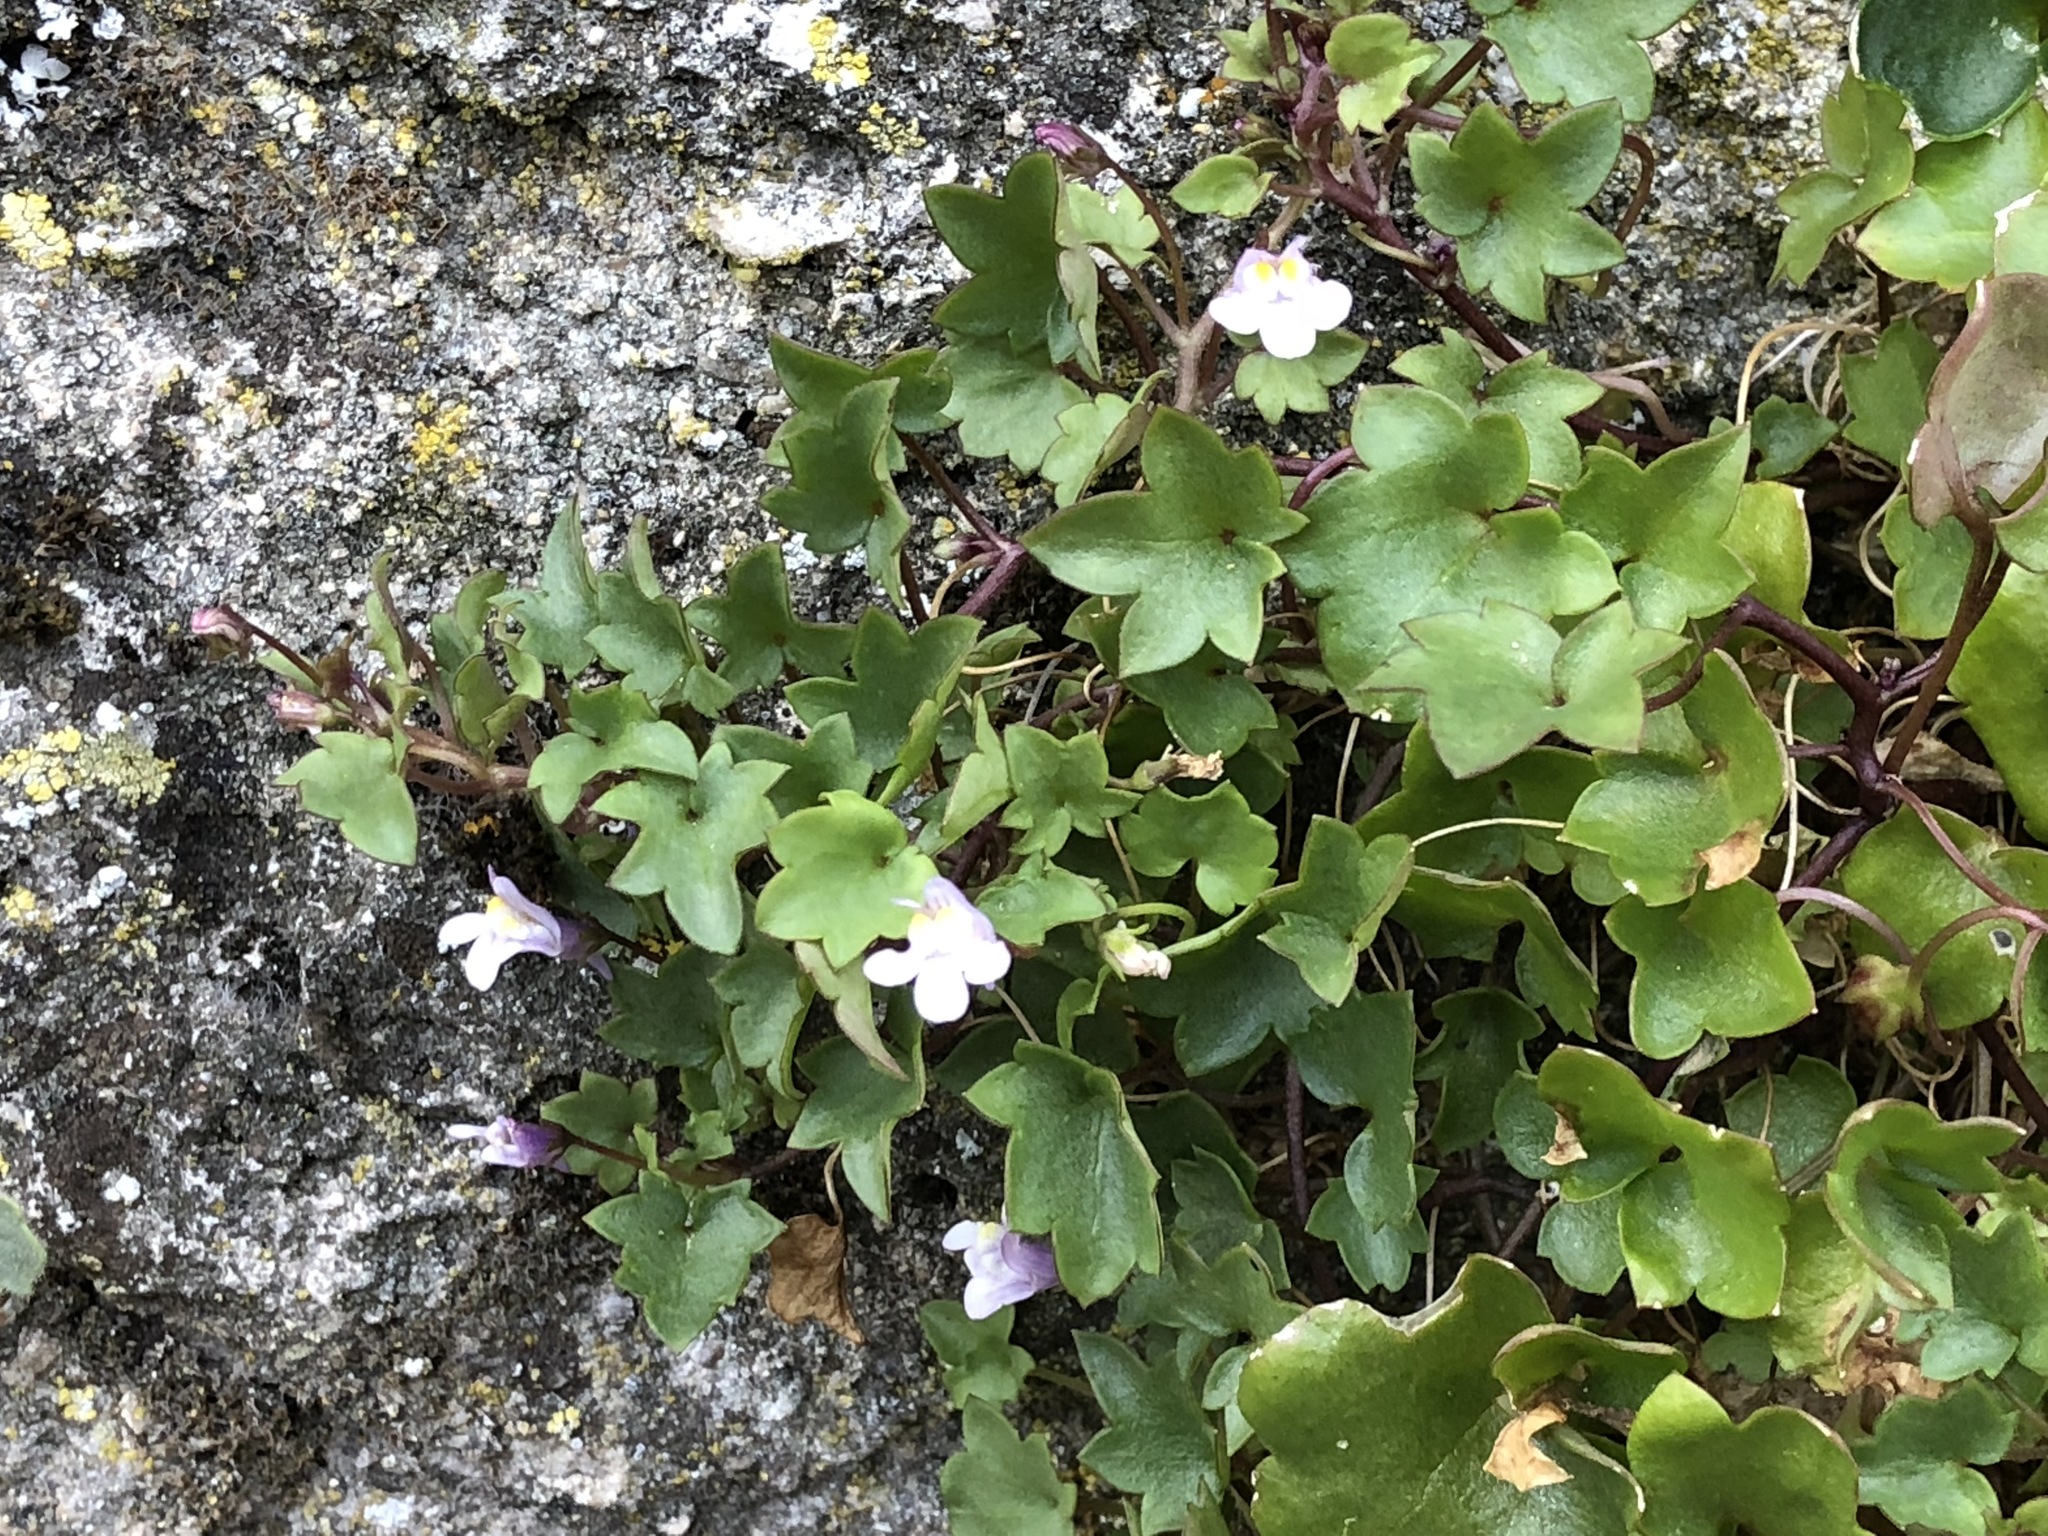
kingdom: Plantae
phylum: Tracheophyta
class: Magnoliopsida
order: Lamiales
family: Plantaginaceae
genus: Cymbalaria
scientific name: Cymbalaria muralis
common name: Ivy-leaved toadflax
